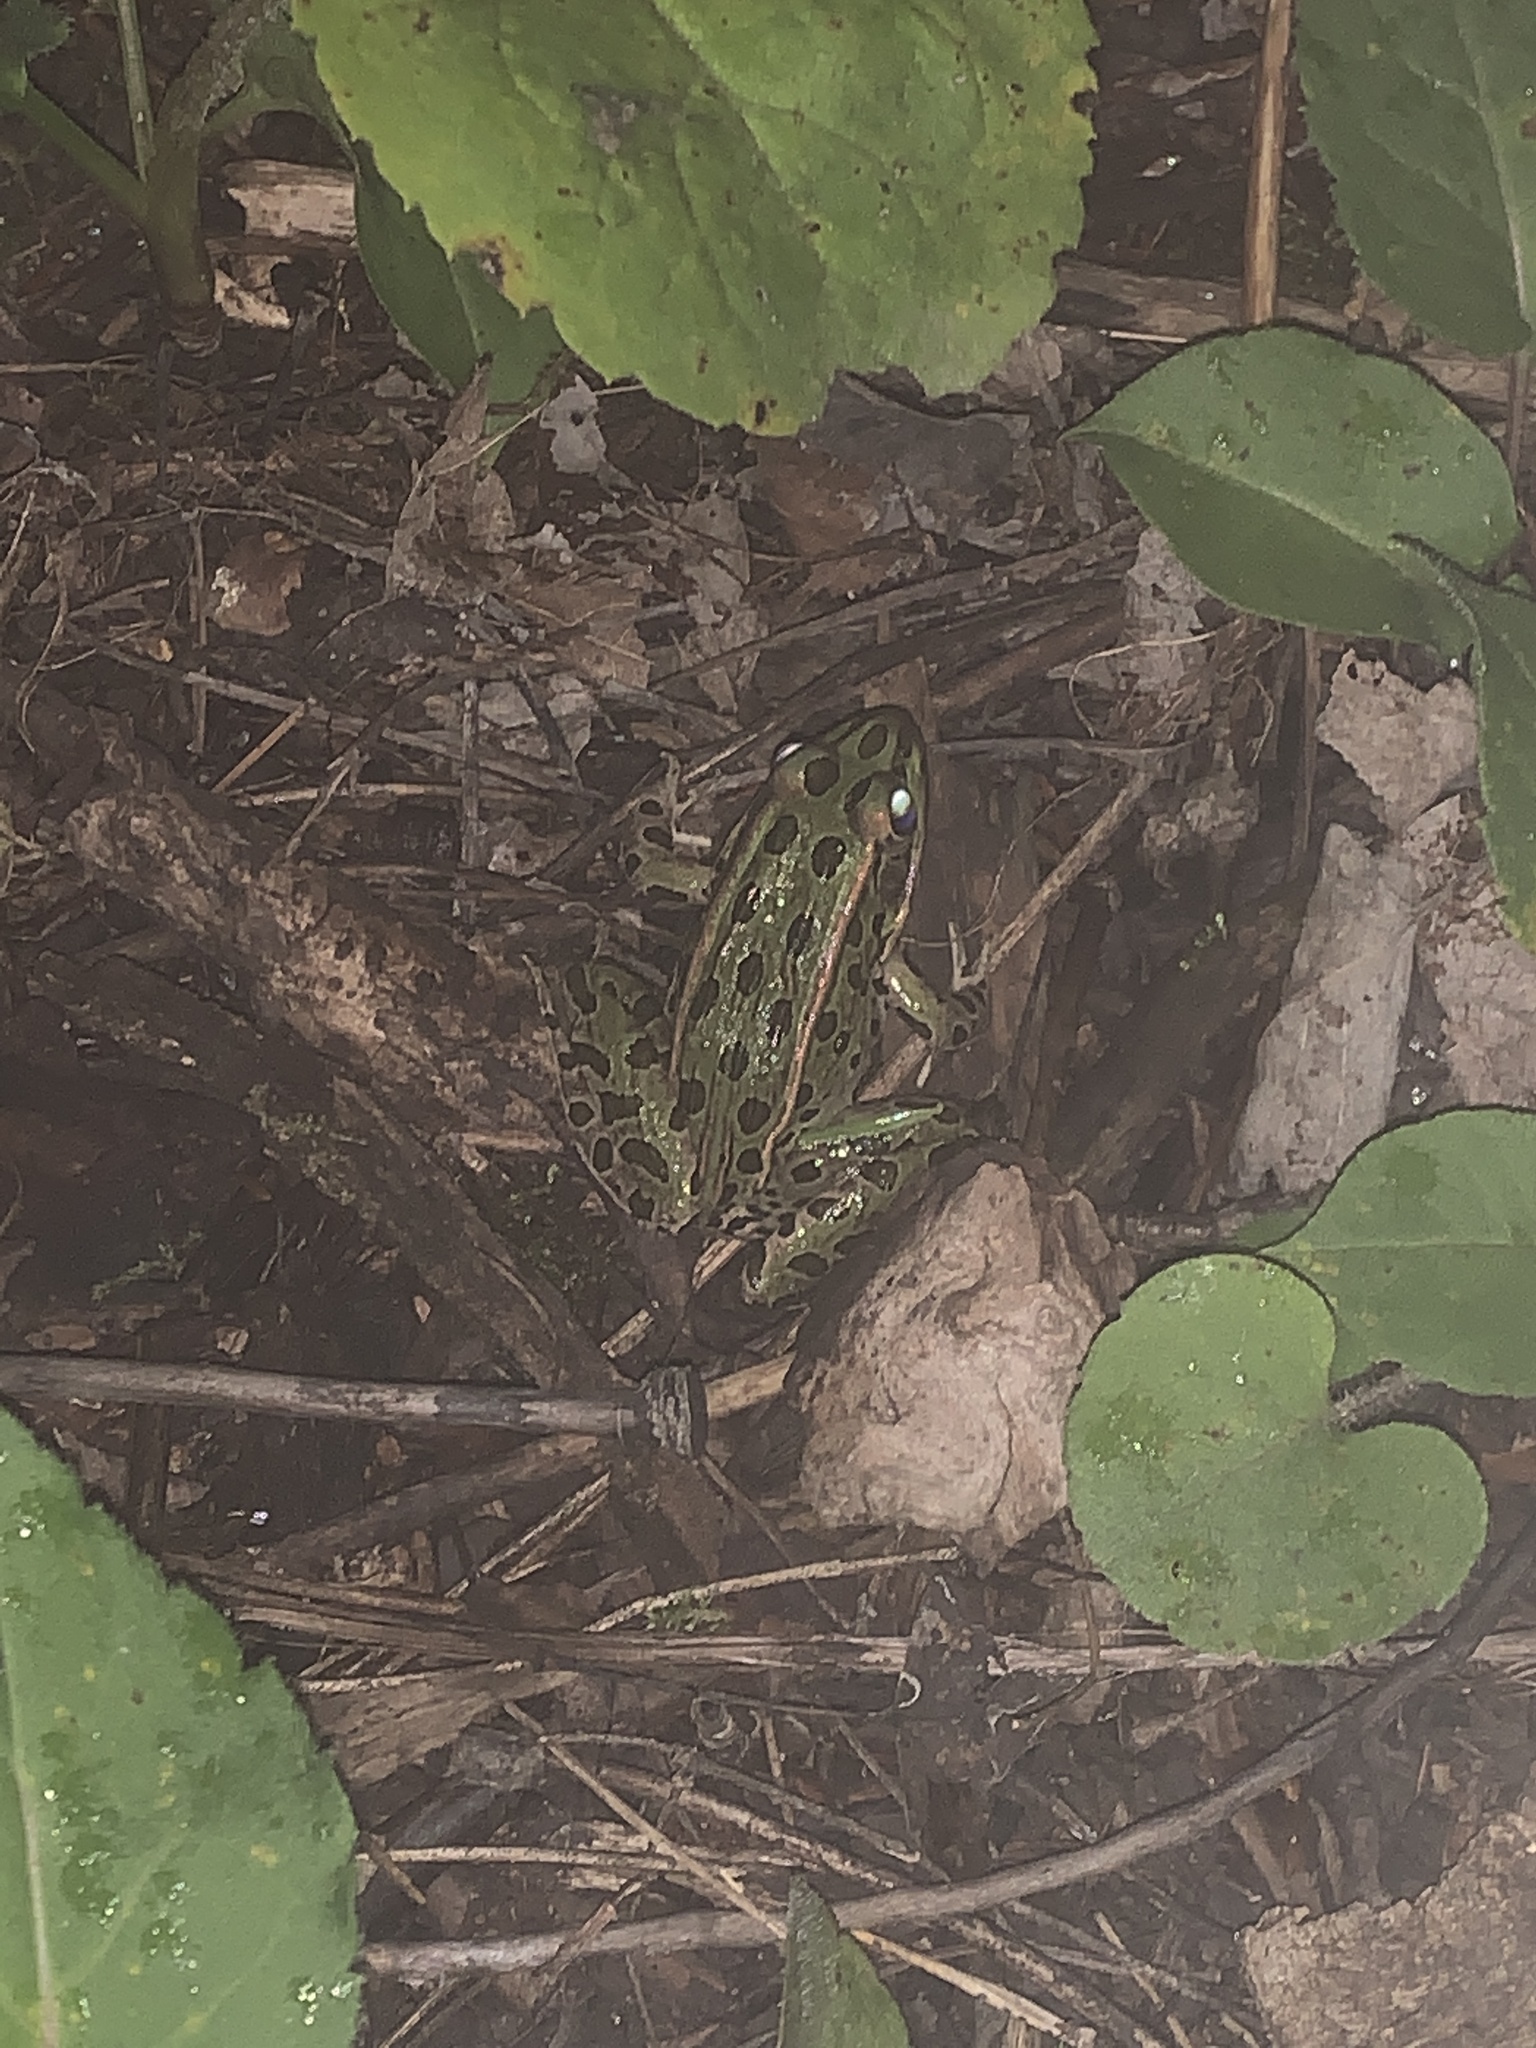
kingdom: Animalia
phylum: Chordata
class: Amphibia
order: Anura
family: Ranidae
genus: Lithobates
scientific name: Lithobates pipiens
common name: Northern leopard frog
